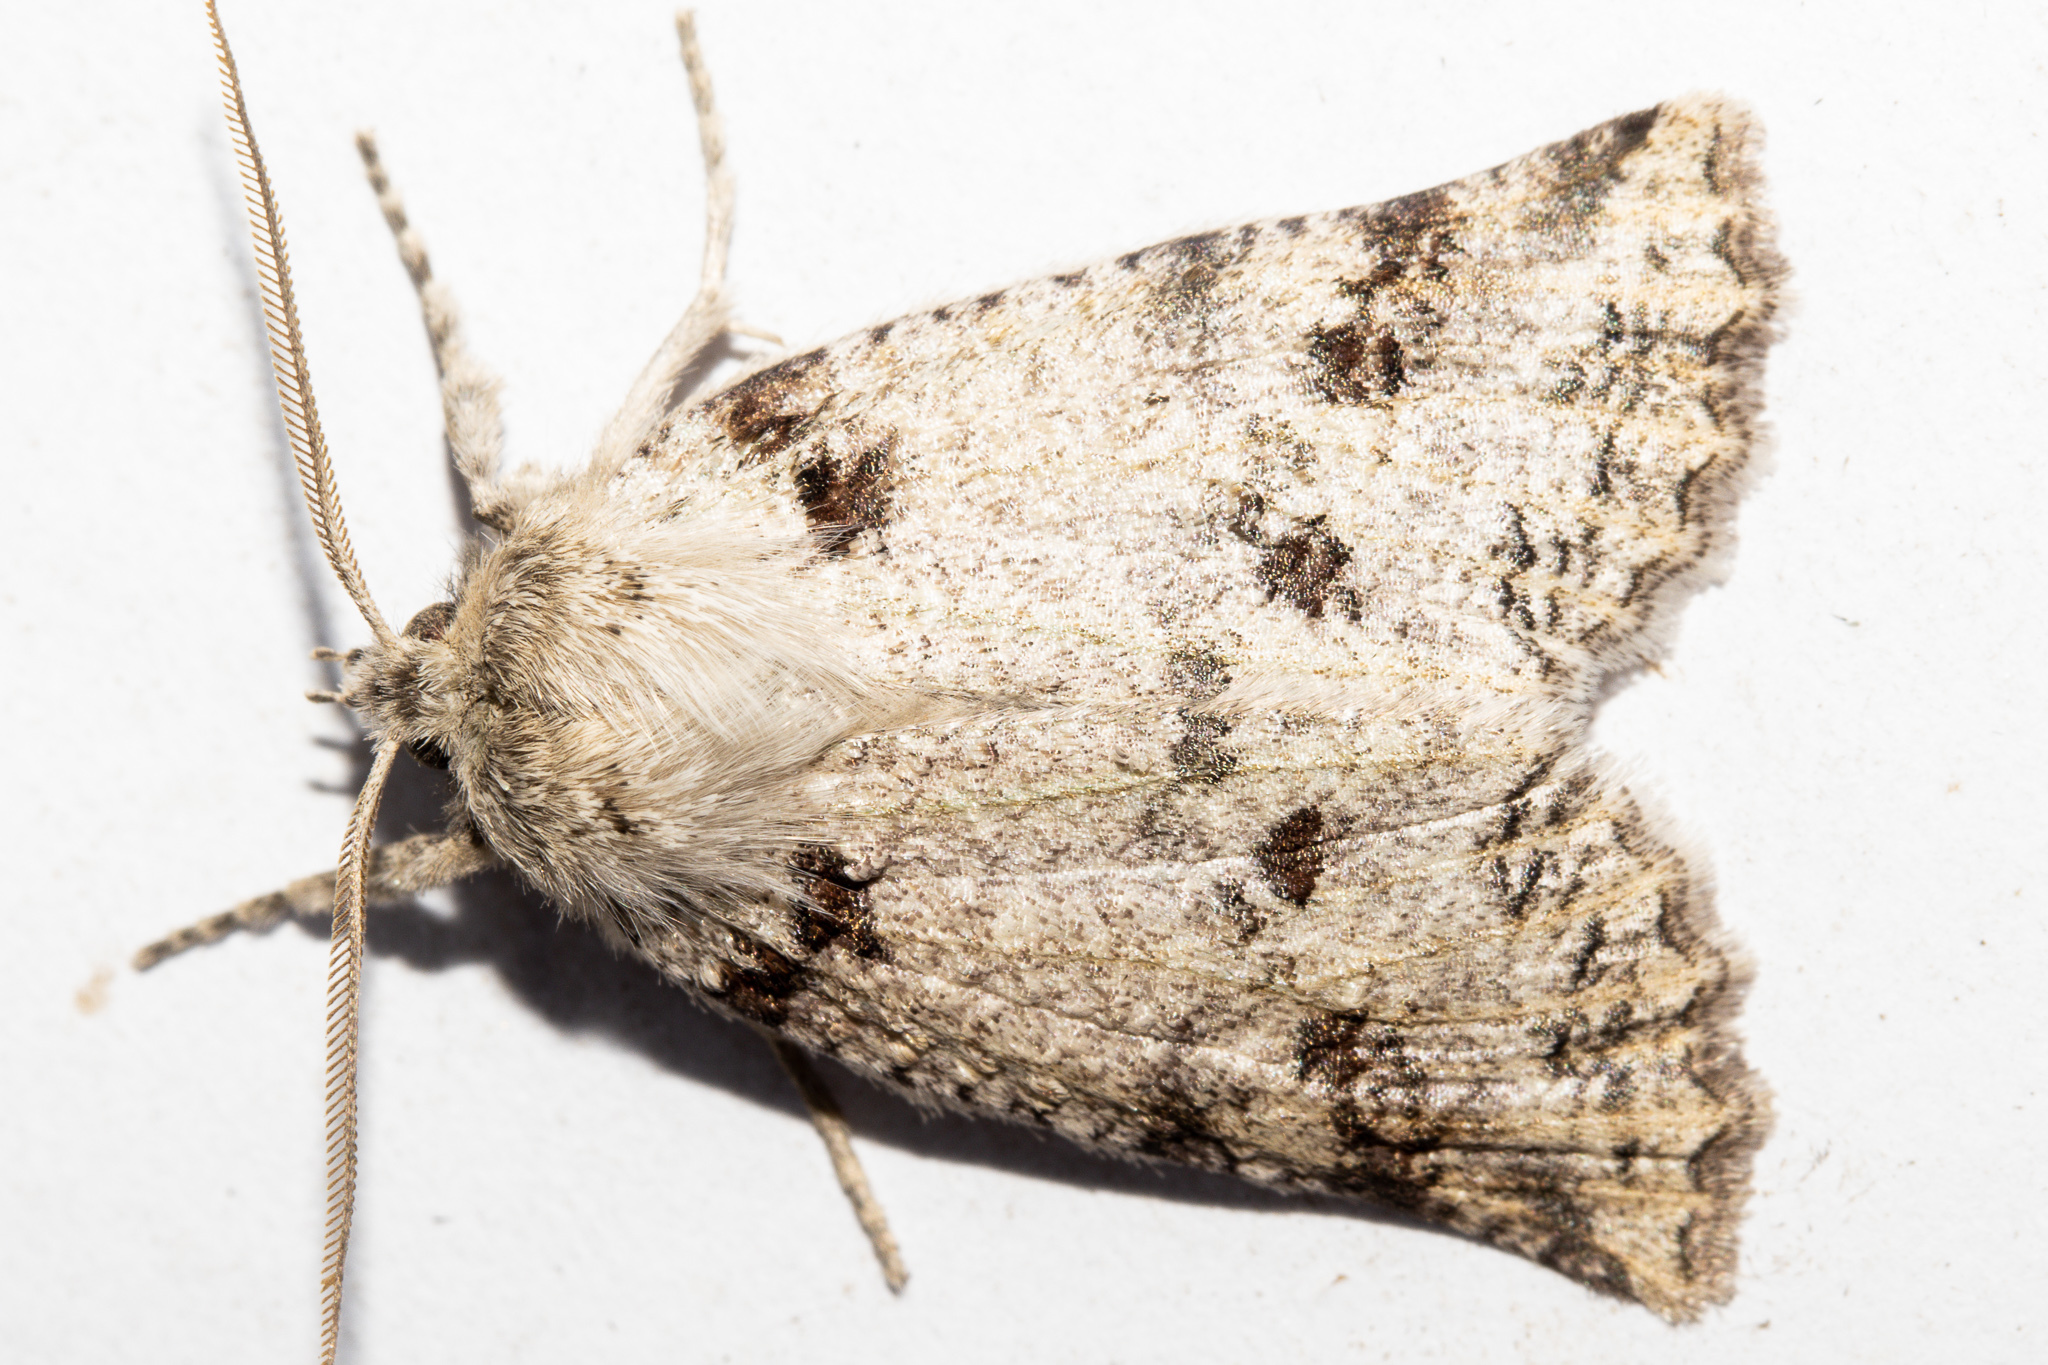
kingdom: Animalia
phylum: Arthropoda
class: Insecta
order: Lepidoptera
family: Geometridae
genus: Declana
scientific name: Declana floccosa
